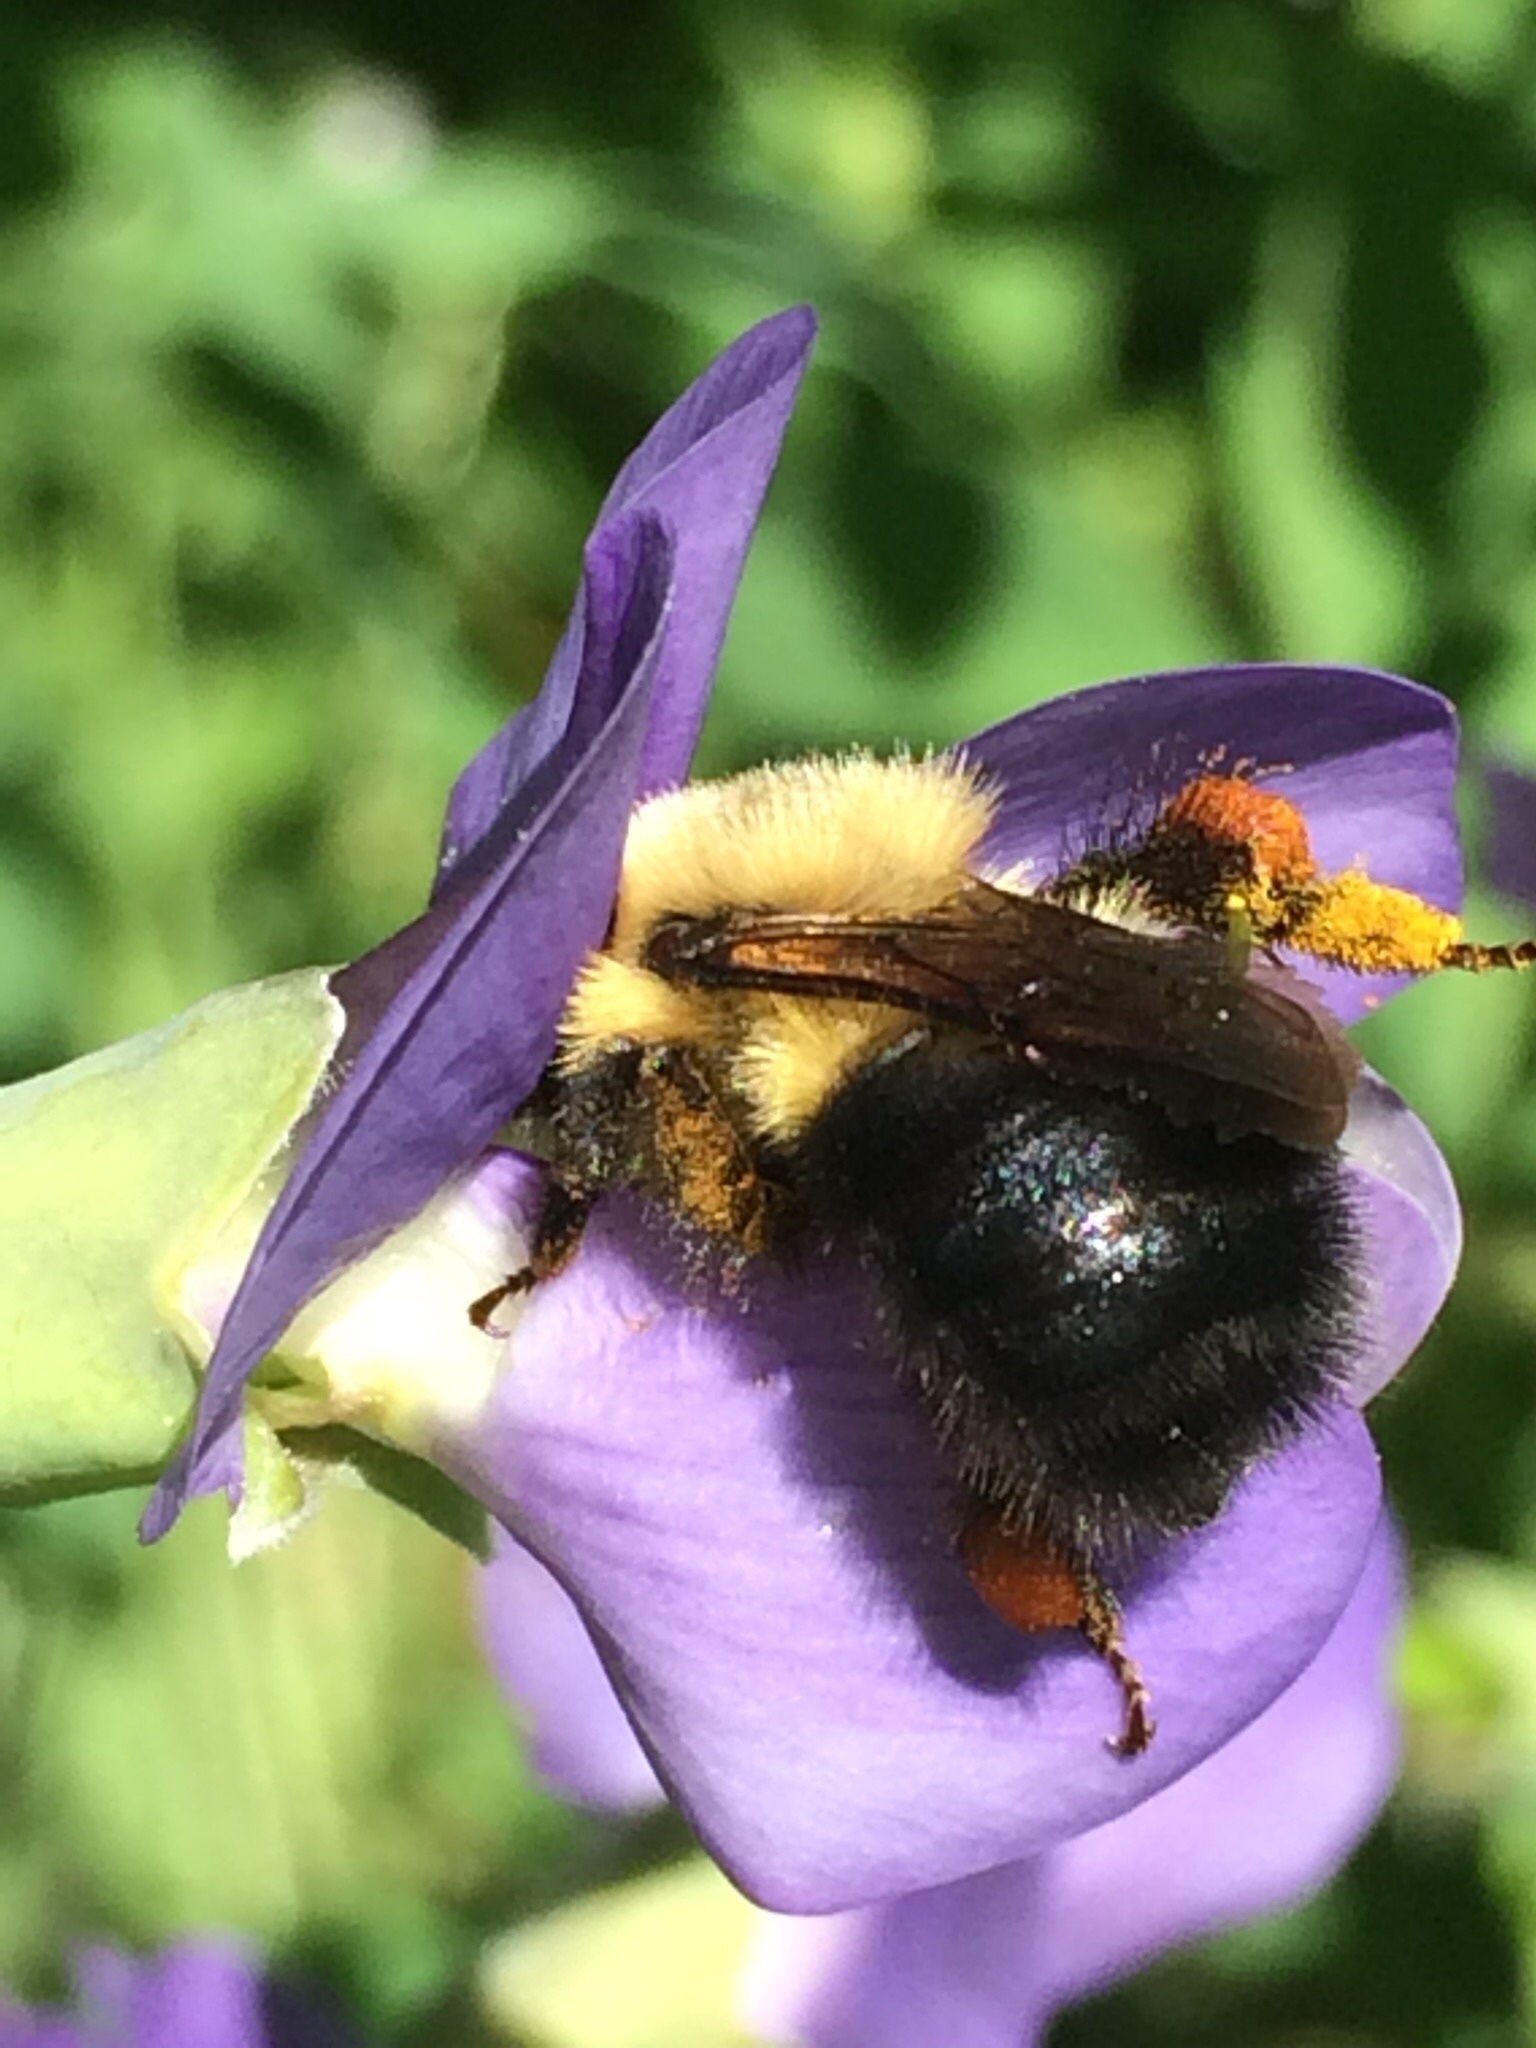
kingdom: Animalia
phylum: Arthropoda
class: Insecta
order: Hymenoptera
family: Apidae
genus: Bombus
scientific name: Bombus bimaculatus
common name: Two-spotted bumble bee
